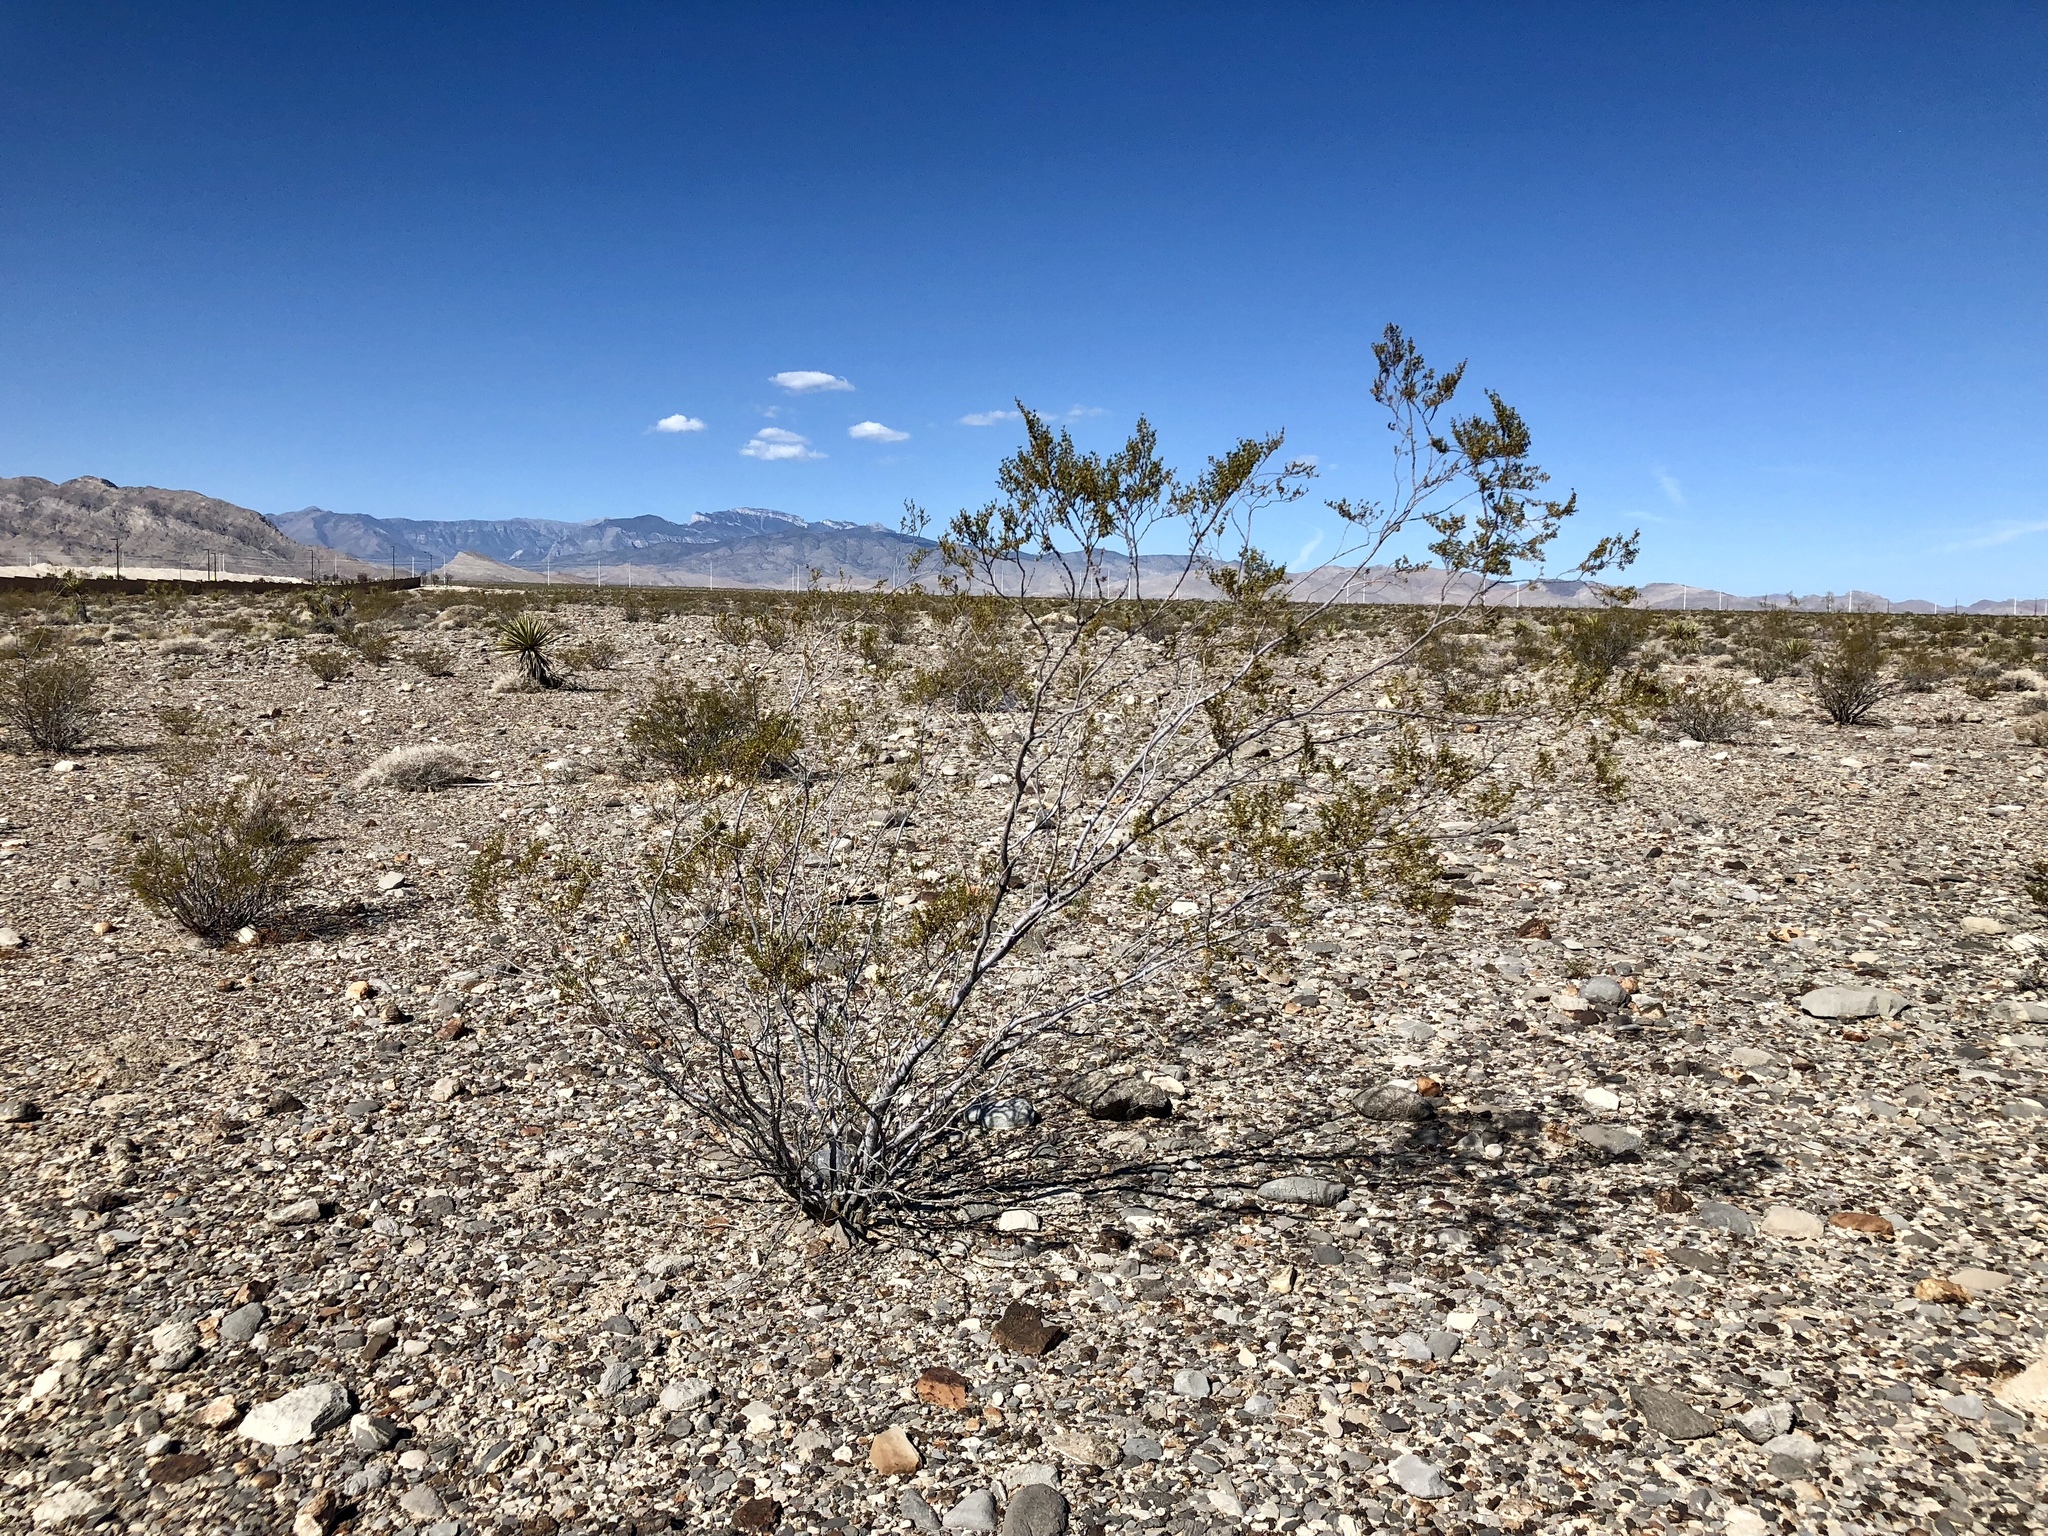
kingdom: Plantae
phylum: Tracheophyta
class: Magnoliopsida
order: Zygophyllales
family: Zygophyllaceae
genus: Larrea
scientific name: Larrea tridentata
